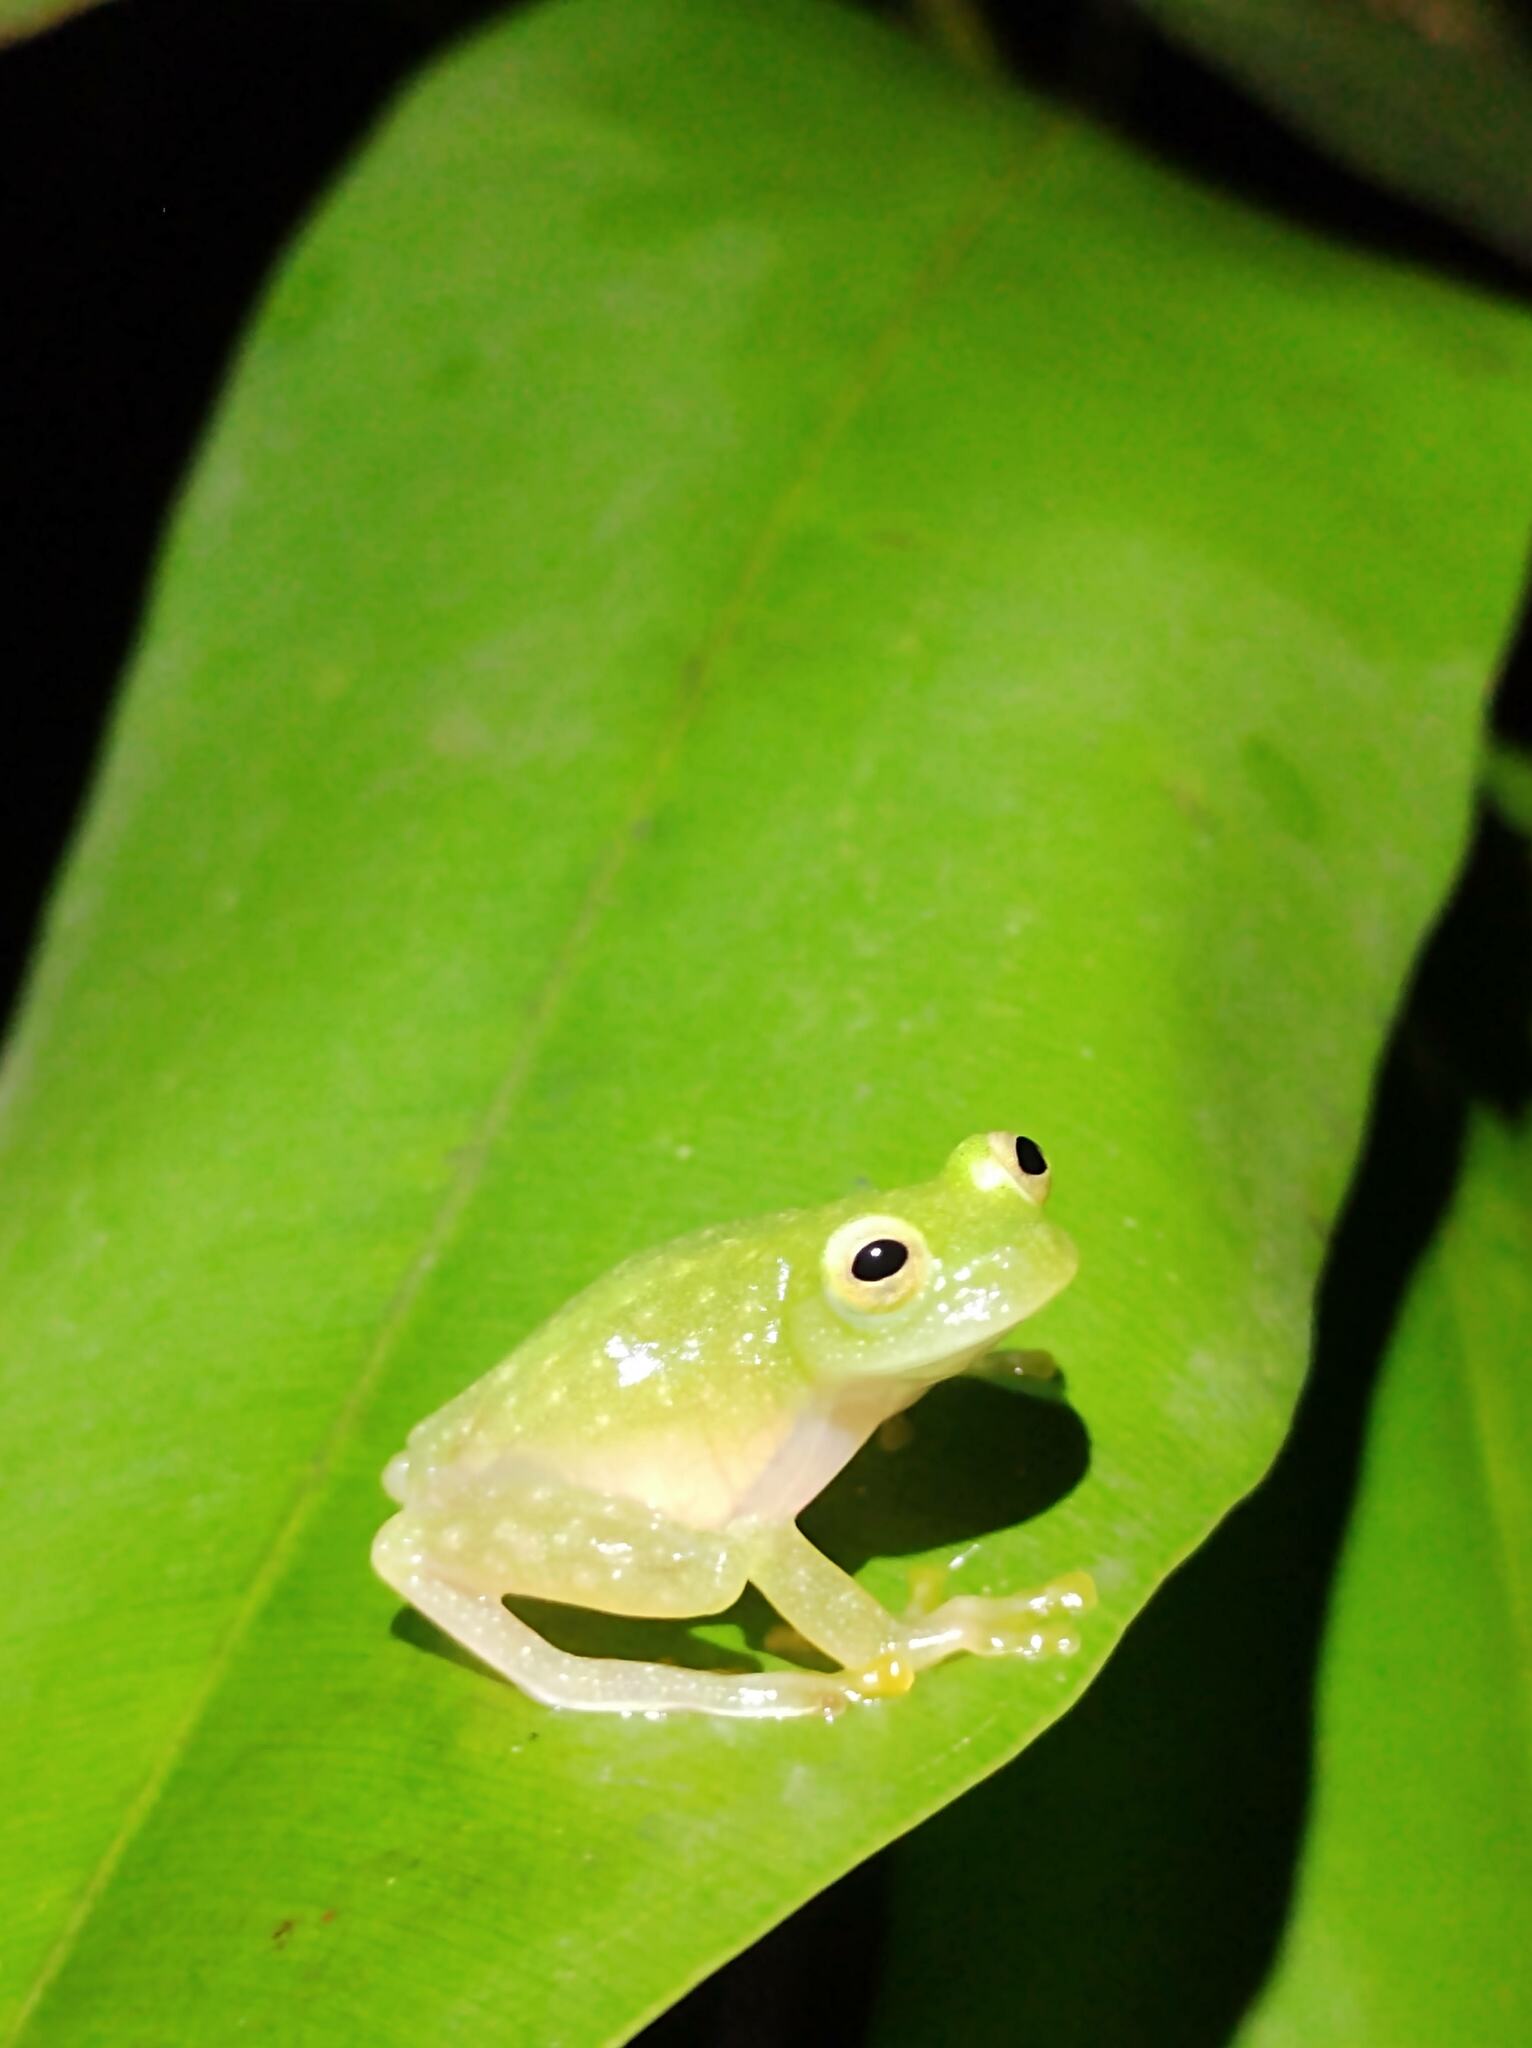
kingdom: Animalia
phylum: Chordata
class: Amphibia
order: Anura
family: Centrolenidae
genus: Hyalinobatrachium
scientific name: Hyalinobatrachium
